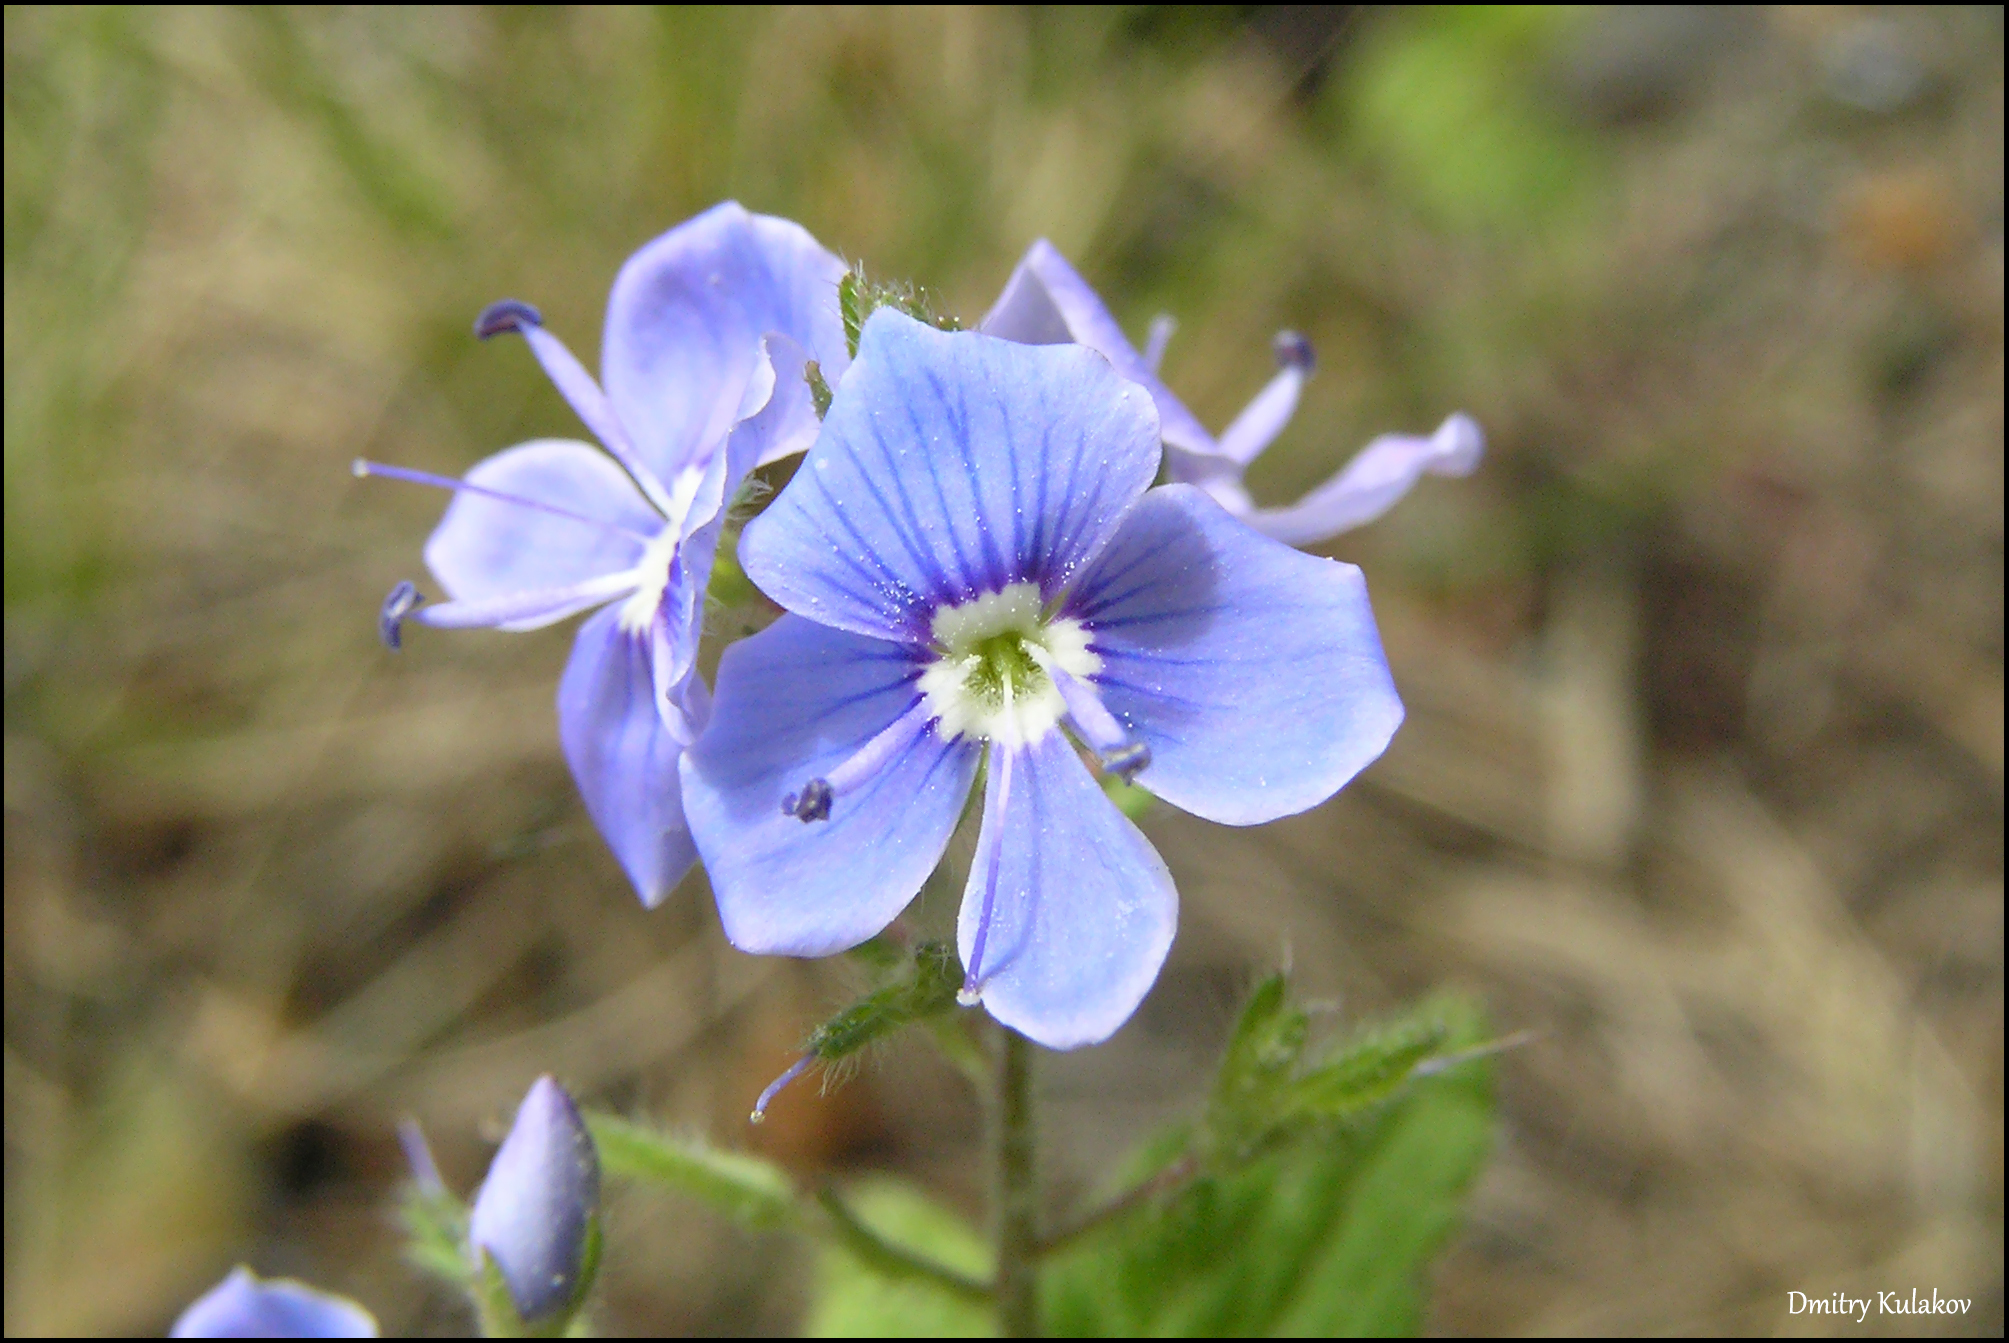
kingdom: Plantae
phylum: Tracheophyta
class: Magnoliopsida
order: Lamiales
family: Plantaginaceae
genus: Veronica
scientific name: Veronica chamaedrys
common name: Germander speedwell
